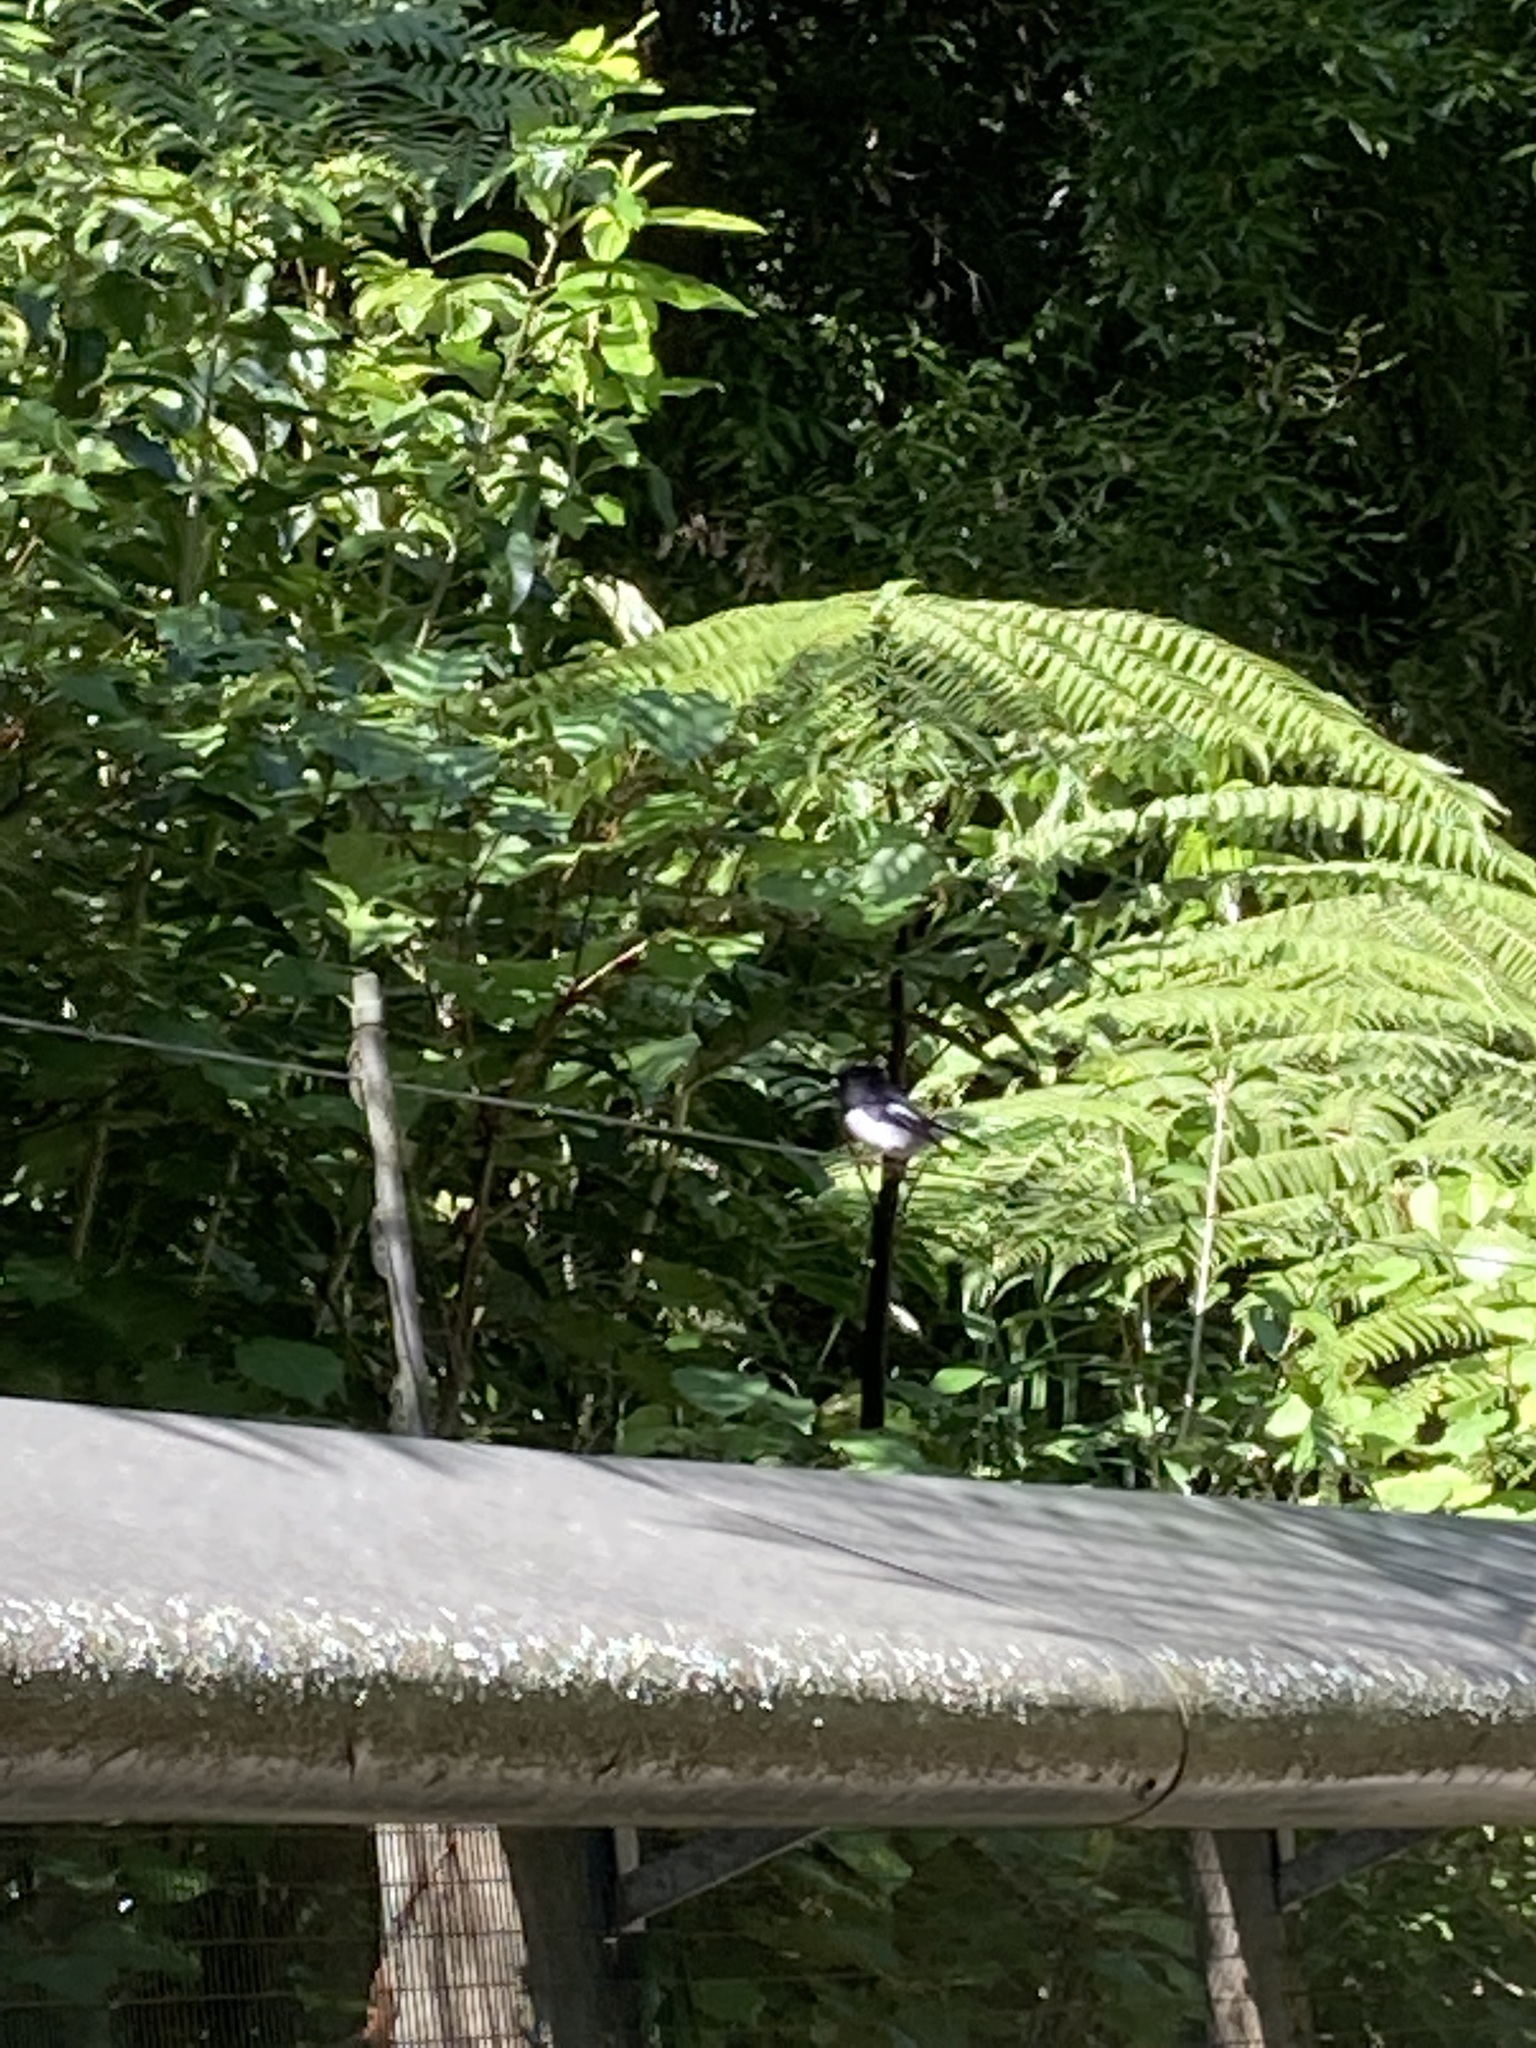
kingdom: Animalia
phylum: Chordata
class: Aves
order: Passeriformes
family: Petroicidae
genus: Petroica
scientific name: Petroica macrocephala
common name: Tomtit
